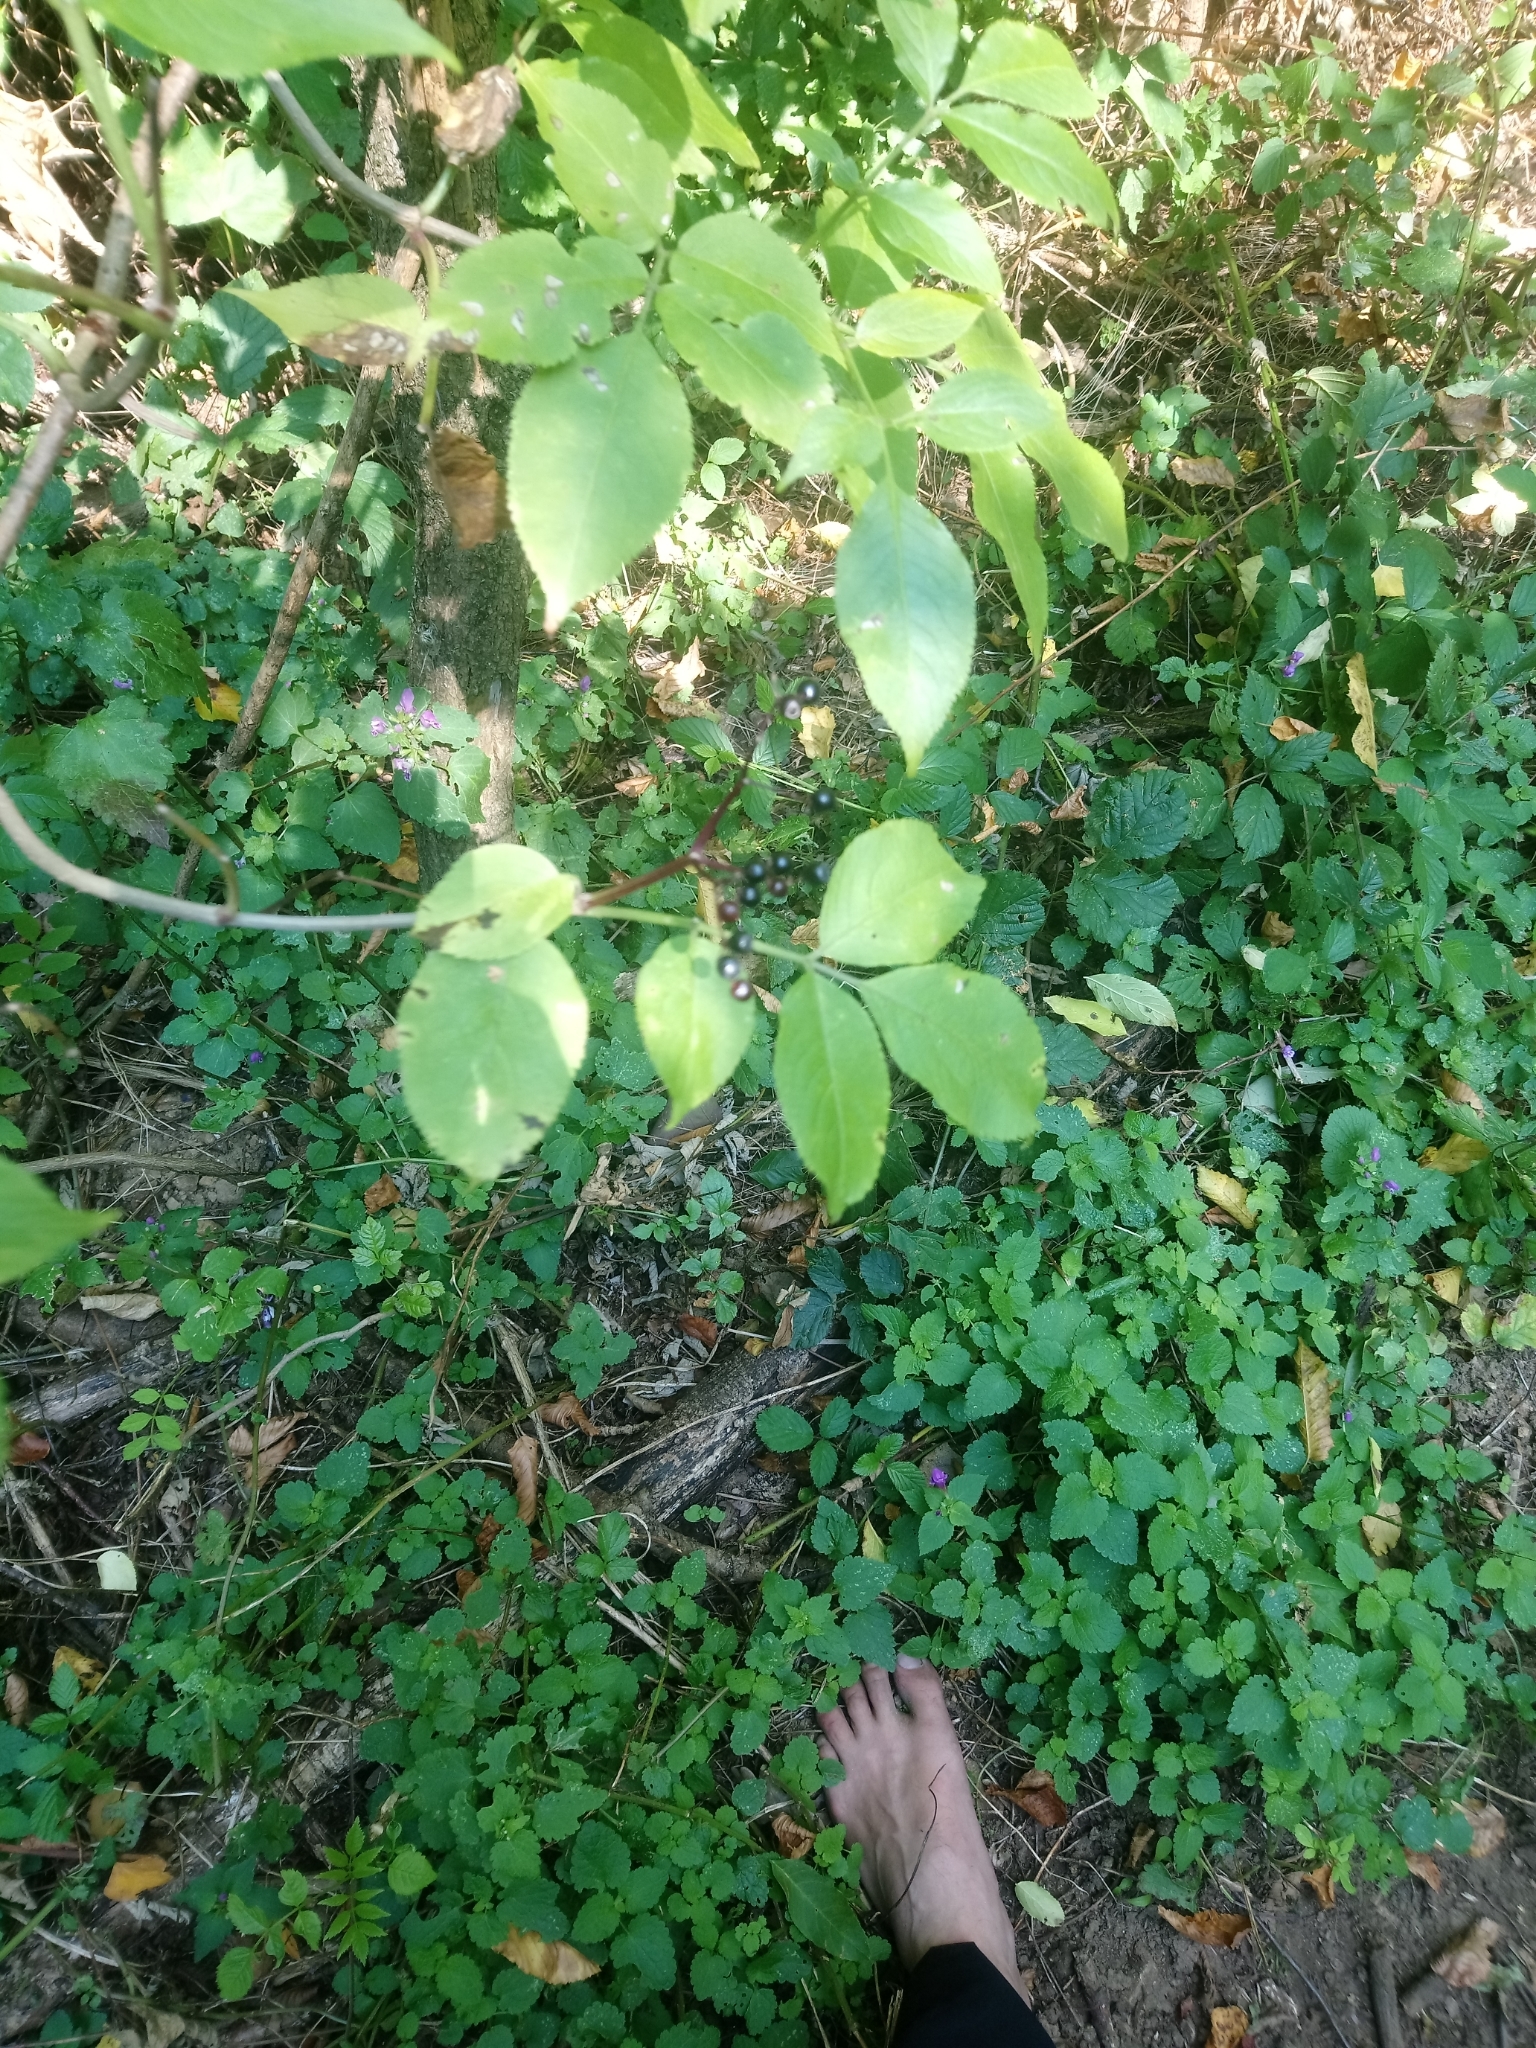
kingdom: Plantae
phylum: Tracheophyta
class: Magnoliopsida
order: Dipsacales
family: Viburnaceae
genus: Sambucus
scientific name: Sambucus nigra
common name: Elder
